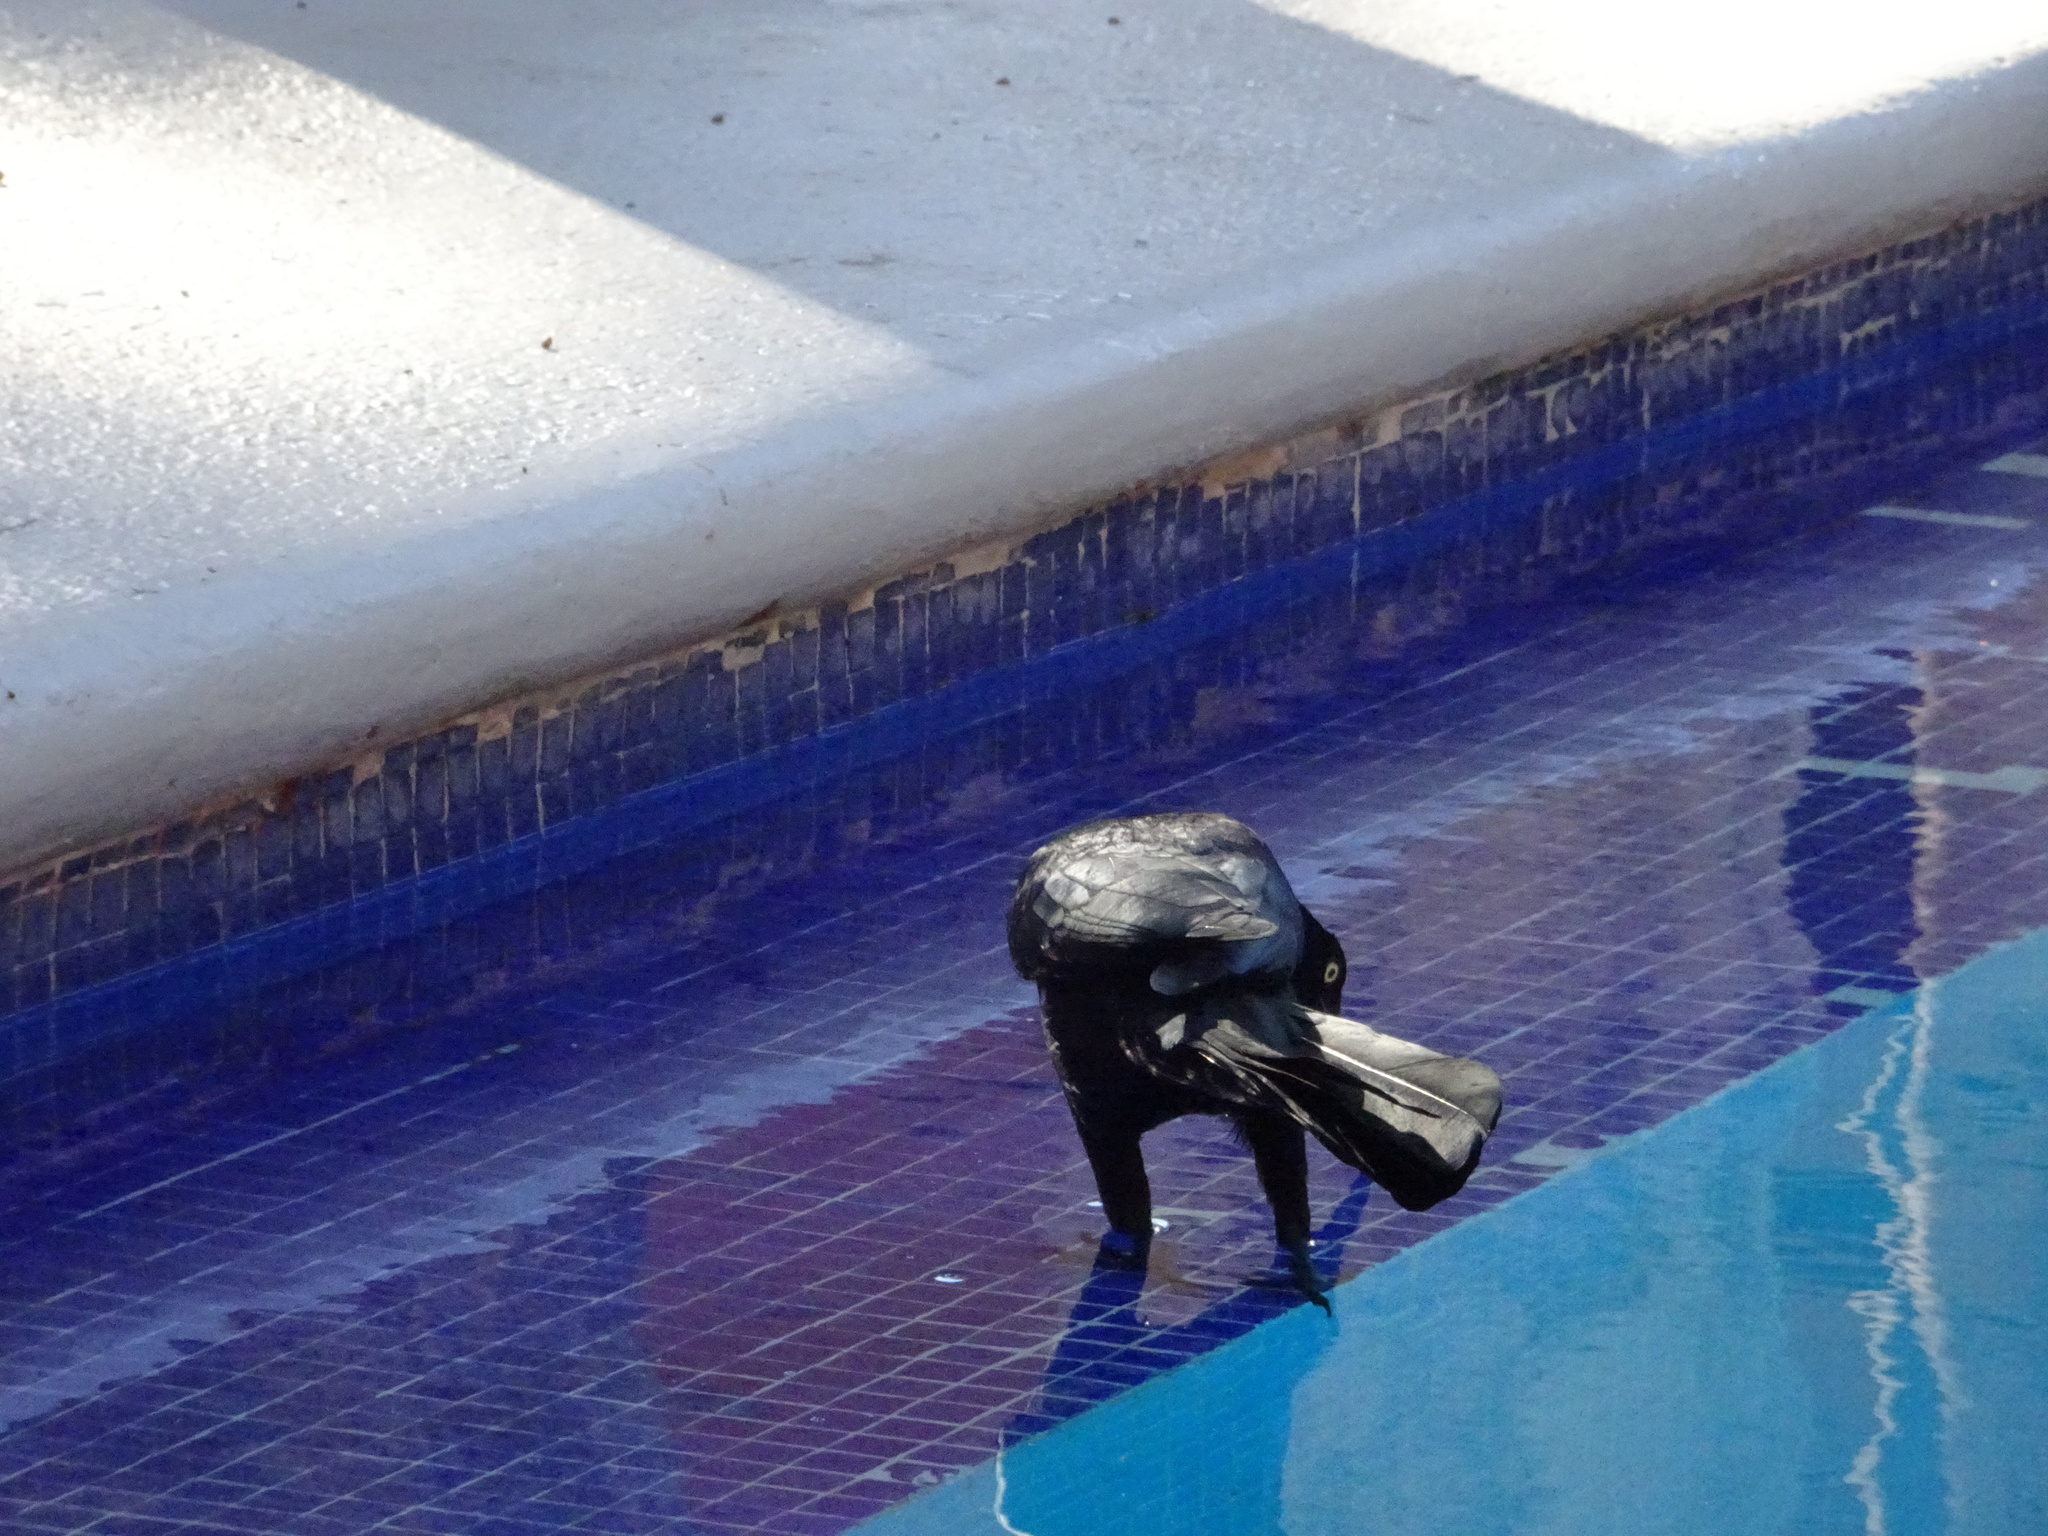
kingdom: Animalia
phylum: Chordata
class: Aves
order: Passeriformes
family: Icteridae
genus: Quiscalus
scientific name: Quiscalus mexicanus
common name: Great-tailed grackle
